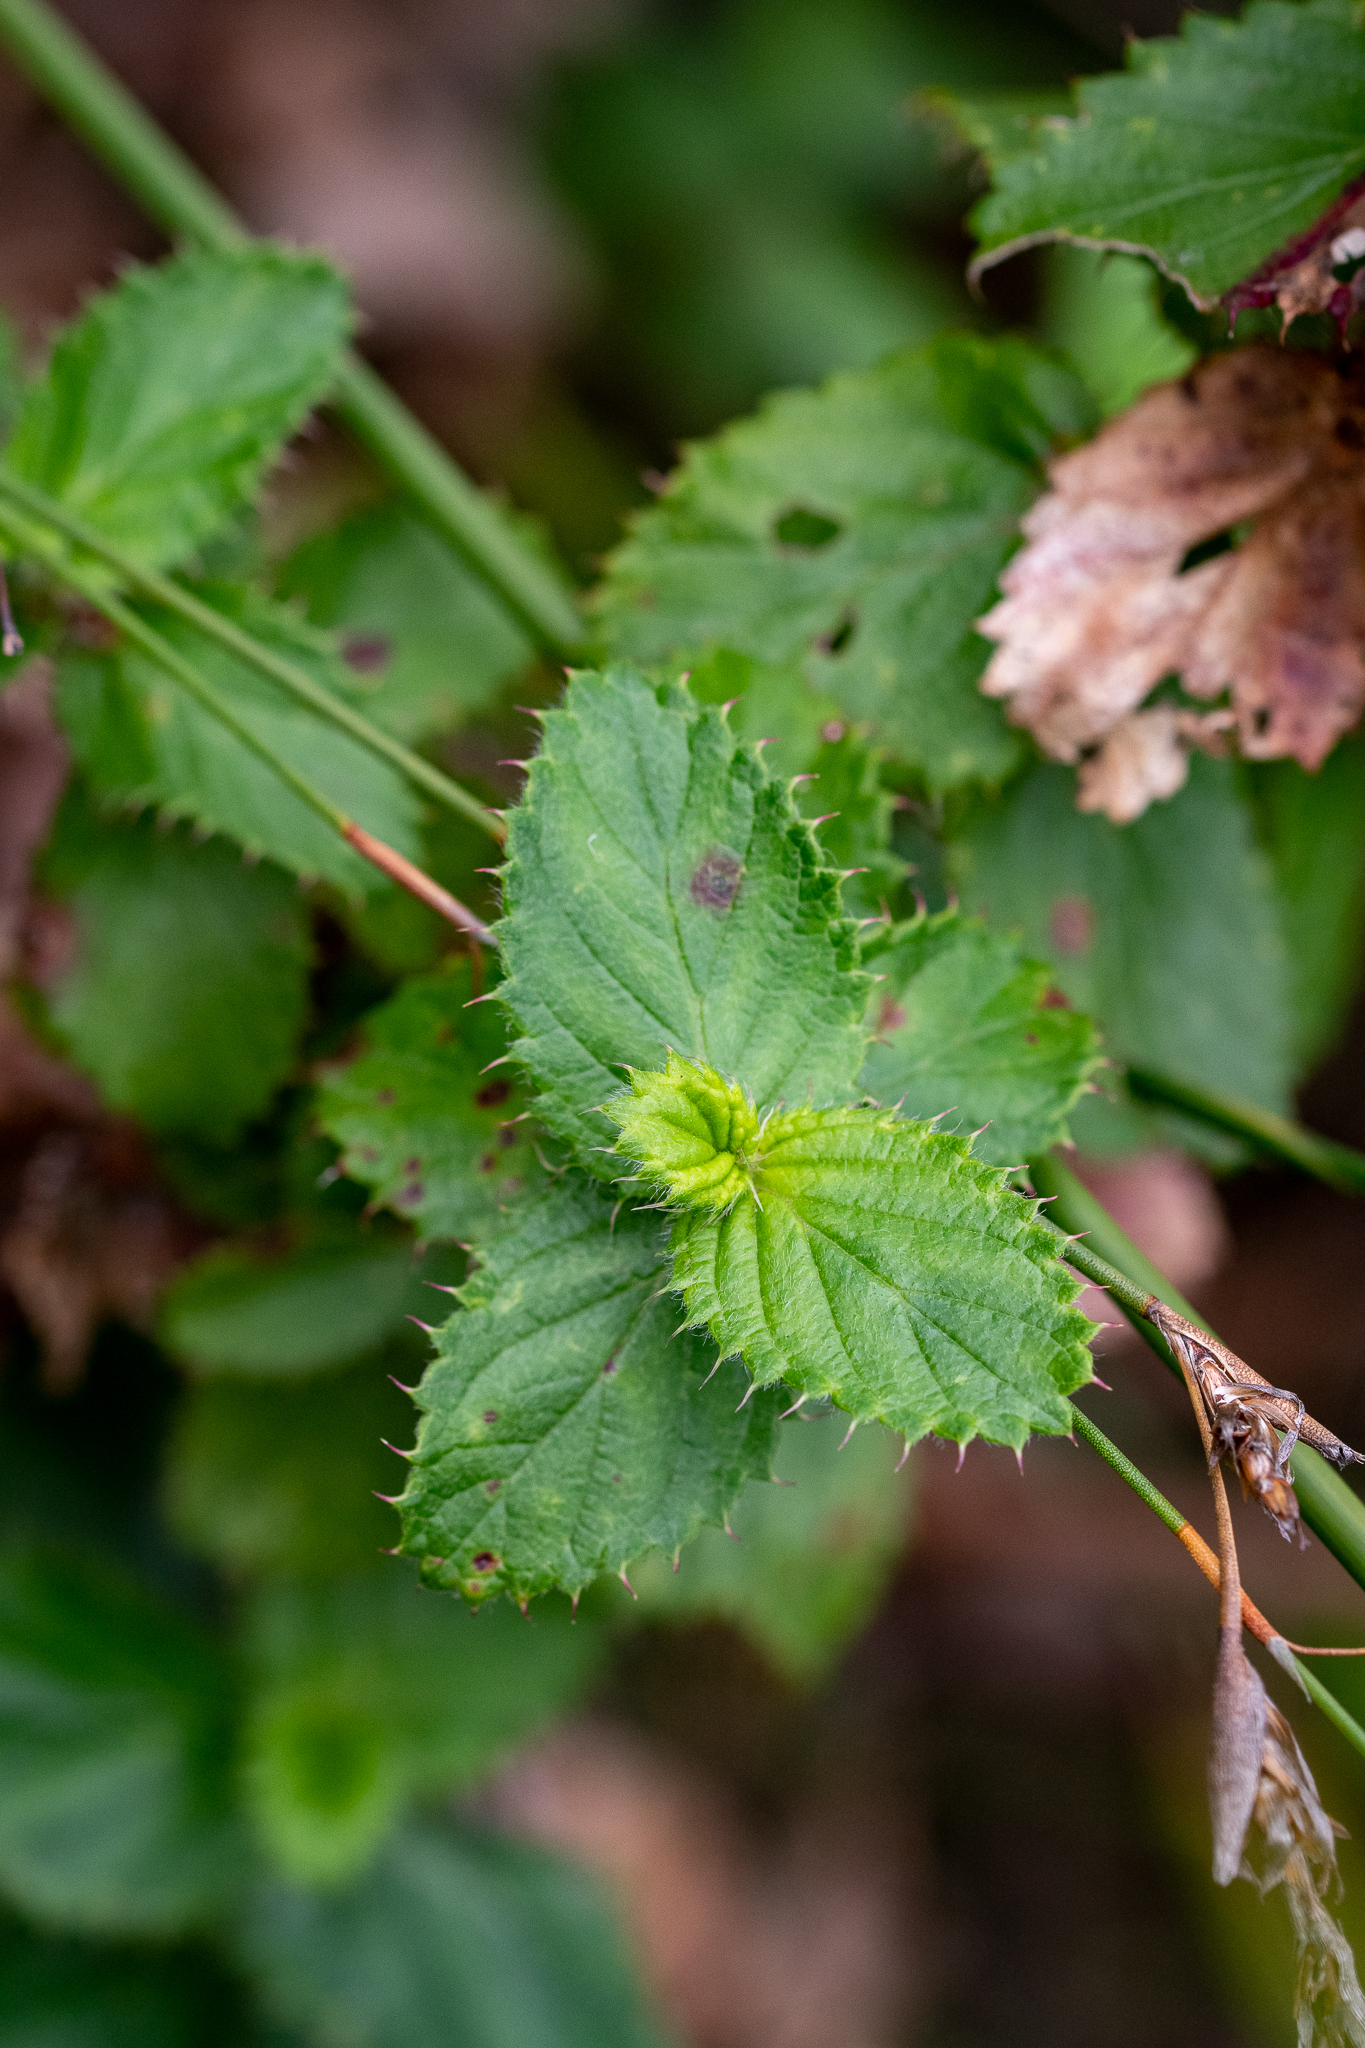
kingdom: Plantae
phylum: Tracheophyta
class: Magnoliopsida
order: Rosales
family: Rosaceae
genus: Cliffortia
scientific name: Cliffortia hirsuta
